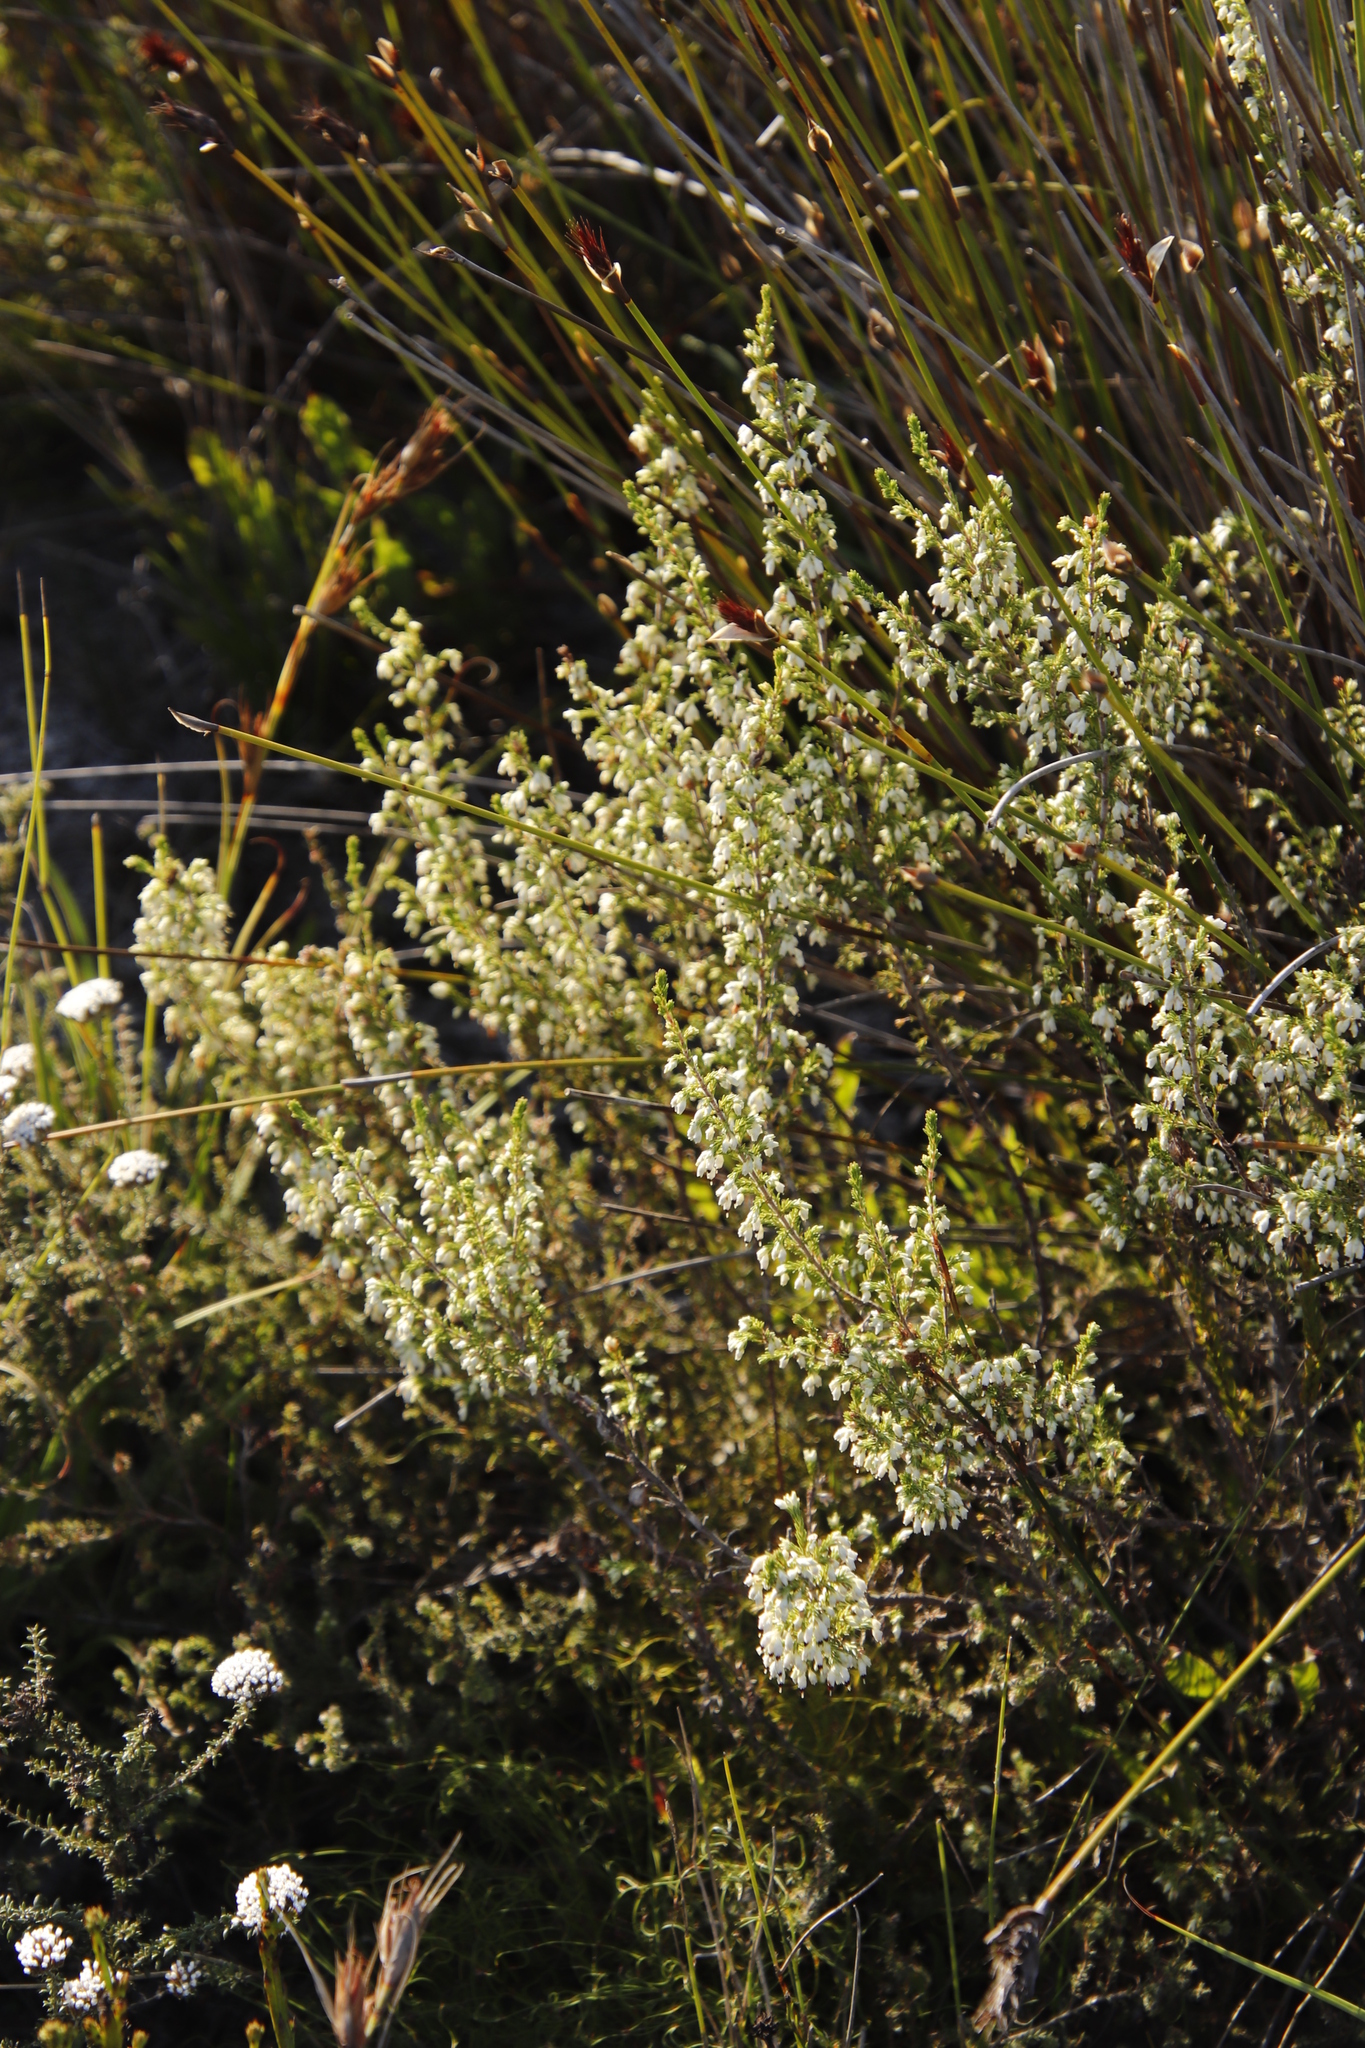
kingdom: Plantae
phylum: Tracheophyta
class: Magnoliopsida
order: Ericales
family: Ericaceae
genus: Erica
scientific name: Erica imbricata
